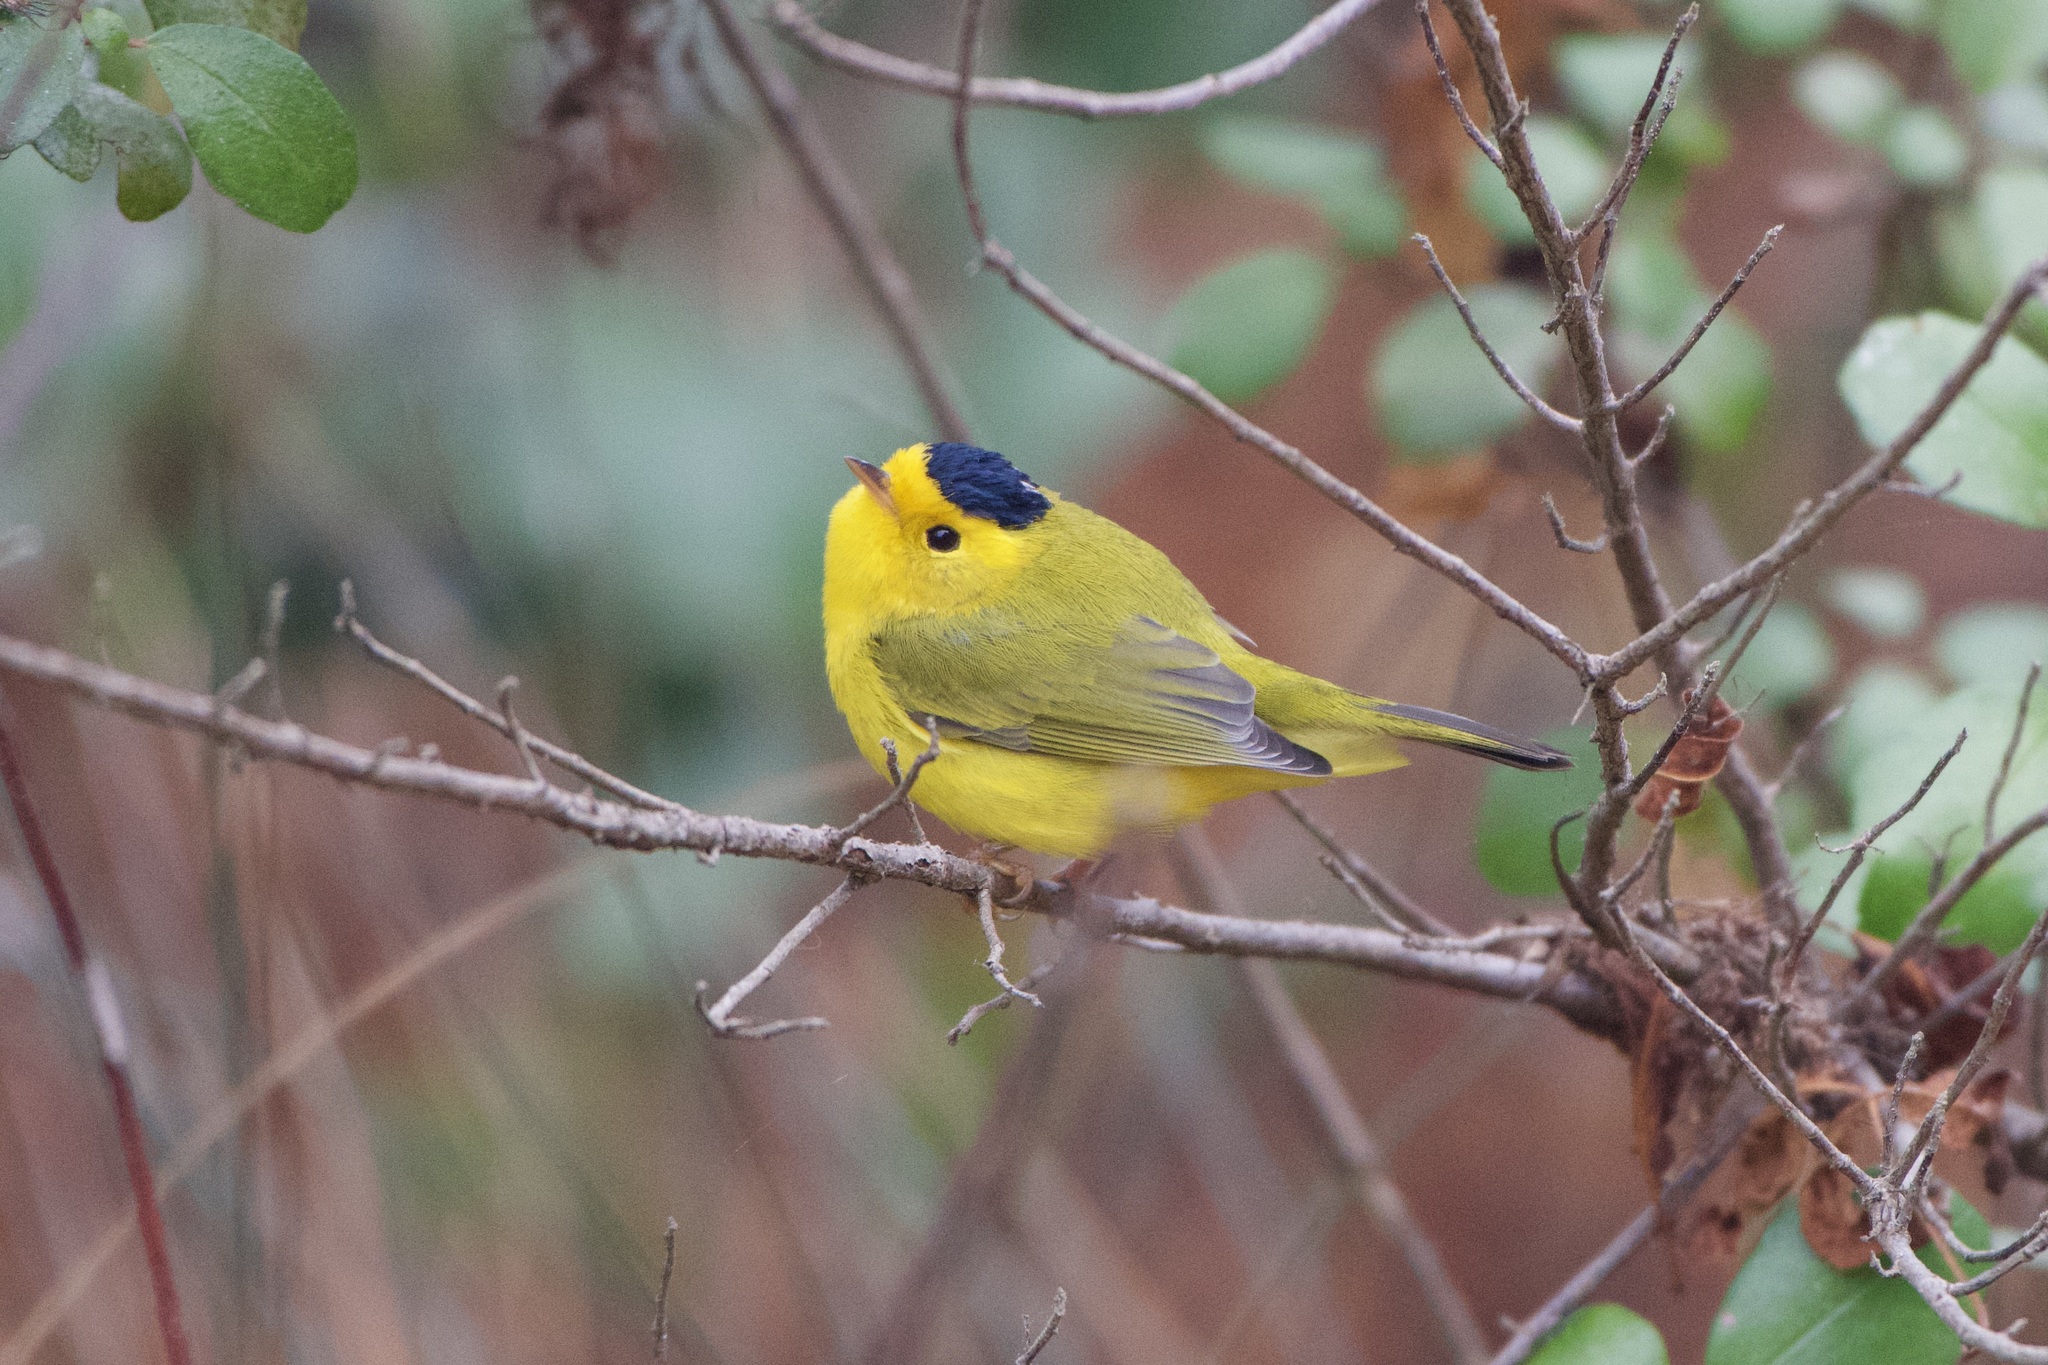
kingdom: Animalia
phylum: Chordata
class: Aves
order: Passeriformes
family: Parulidae
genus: Cardellina
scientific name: Cardellina pusilla
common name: Wilson's warbler
